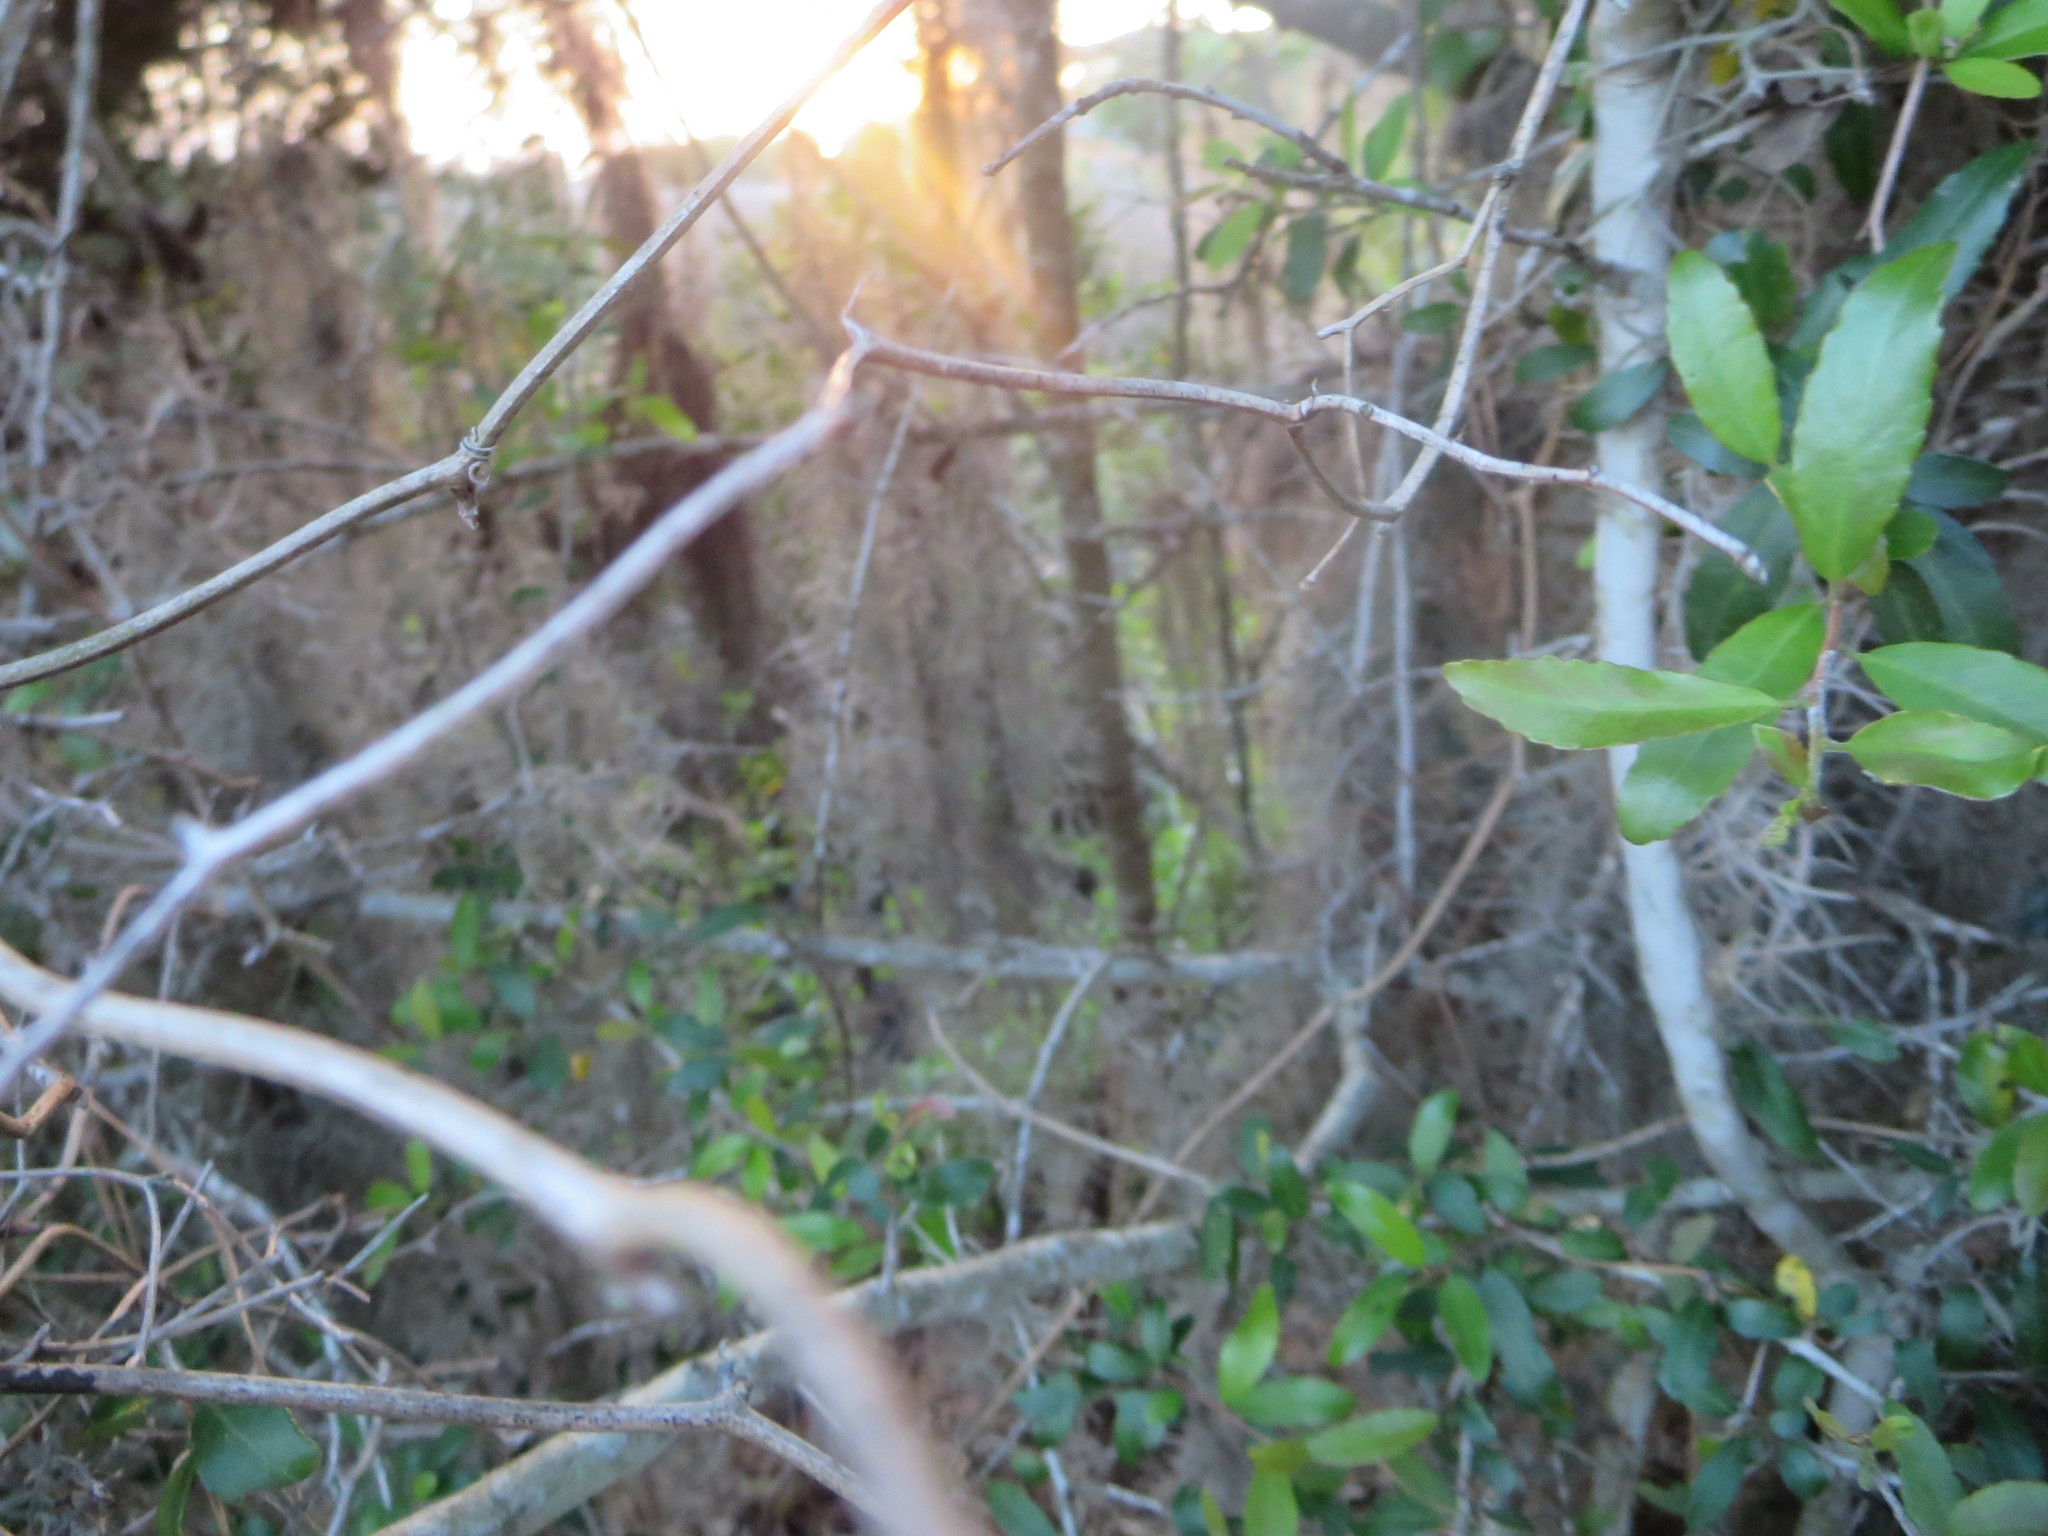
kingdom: Plantae
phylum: Tracheophyta
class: Liliopsida
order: Poales
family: Bromeliaceae
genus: Tillandsia
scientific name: Tillandsia usneoides
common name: Spanish moss
